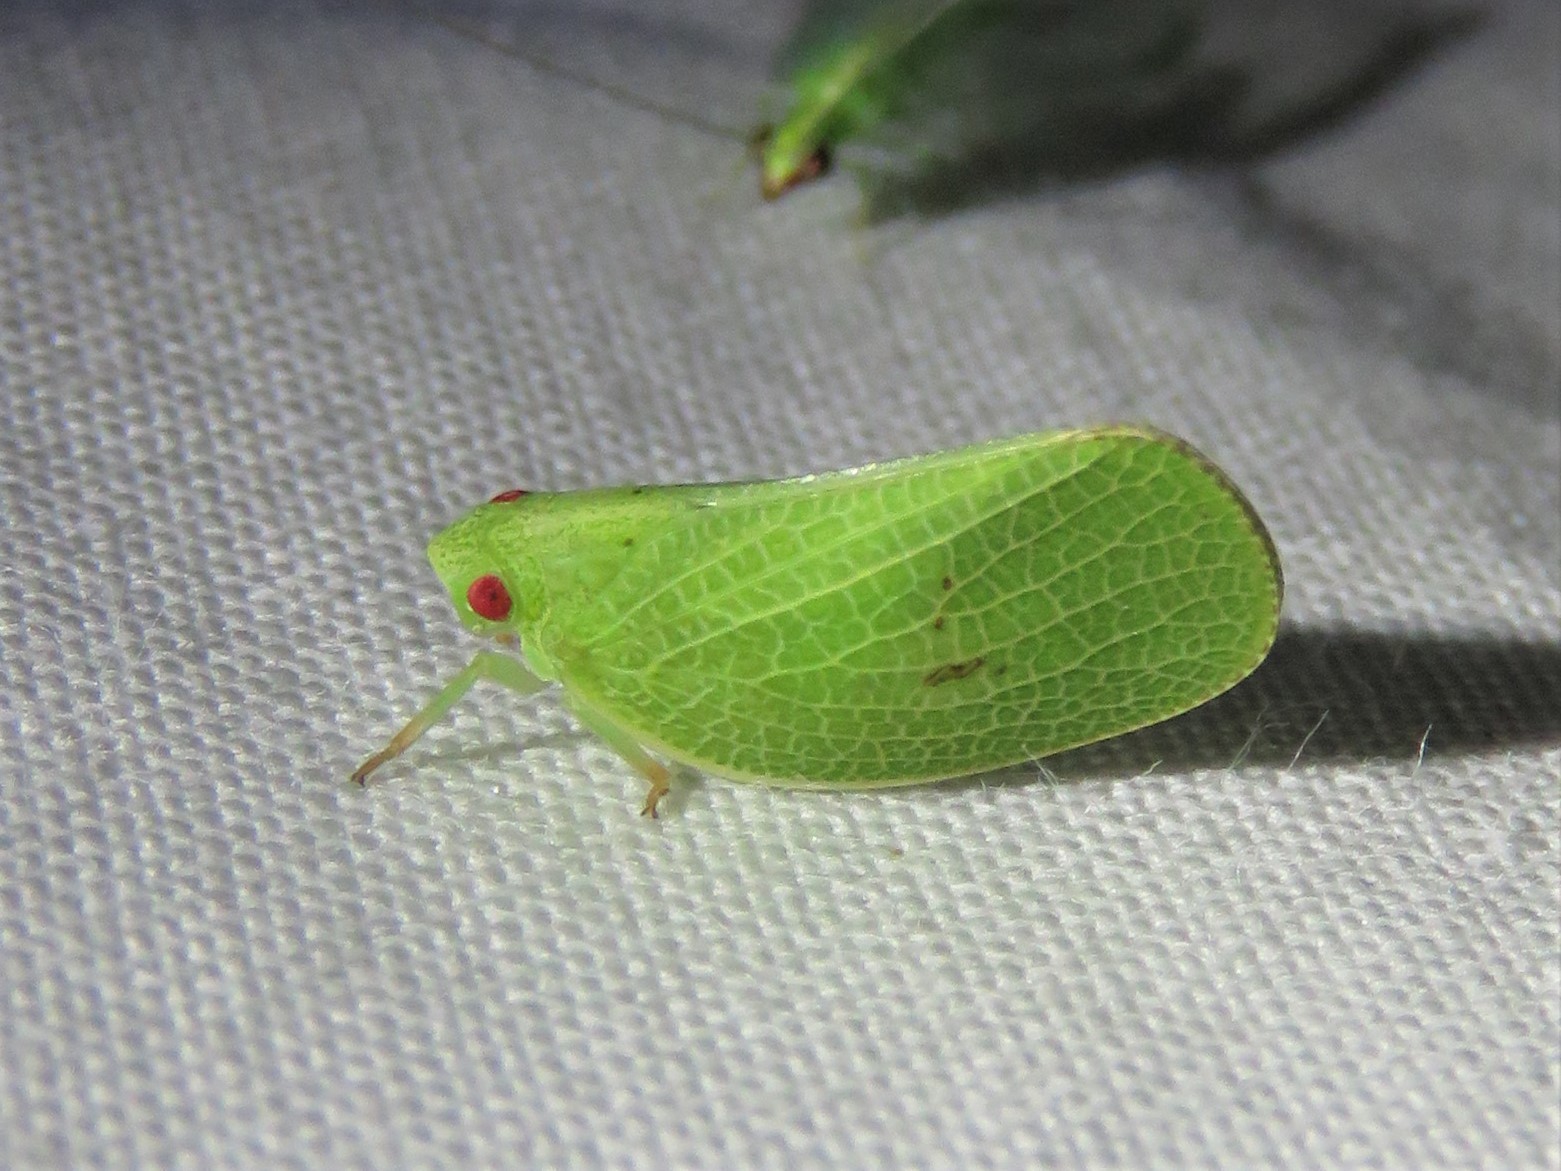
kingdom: Animalia
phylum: Arthropoda
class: Insecta
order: Hemiptera
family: Acanaloniidae
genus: Acanalonia
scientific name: Acanalonia conica
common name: Green cone-headed planthopper
